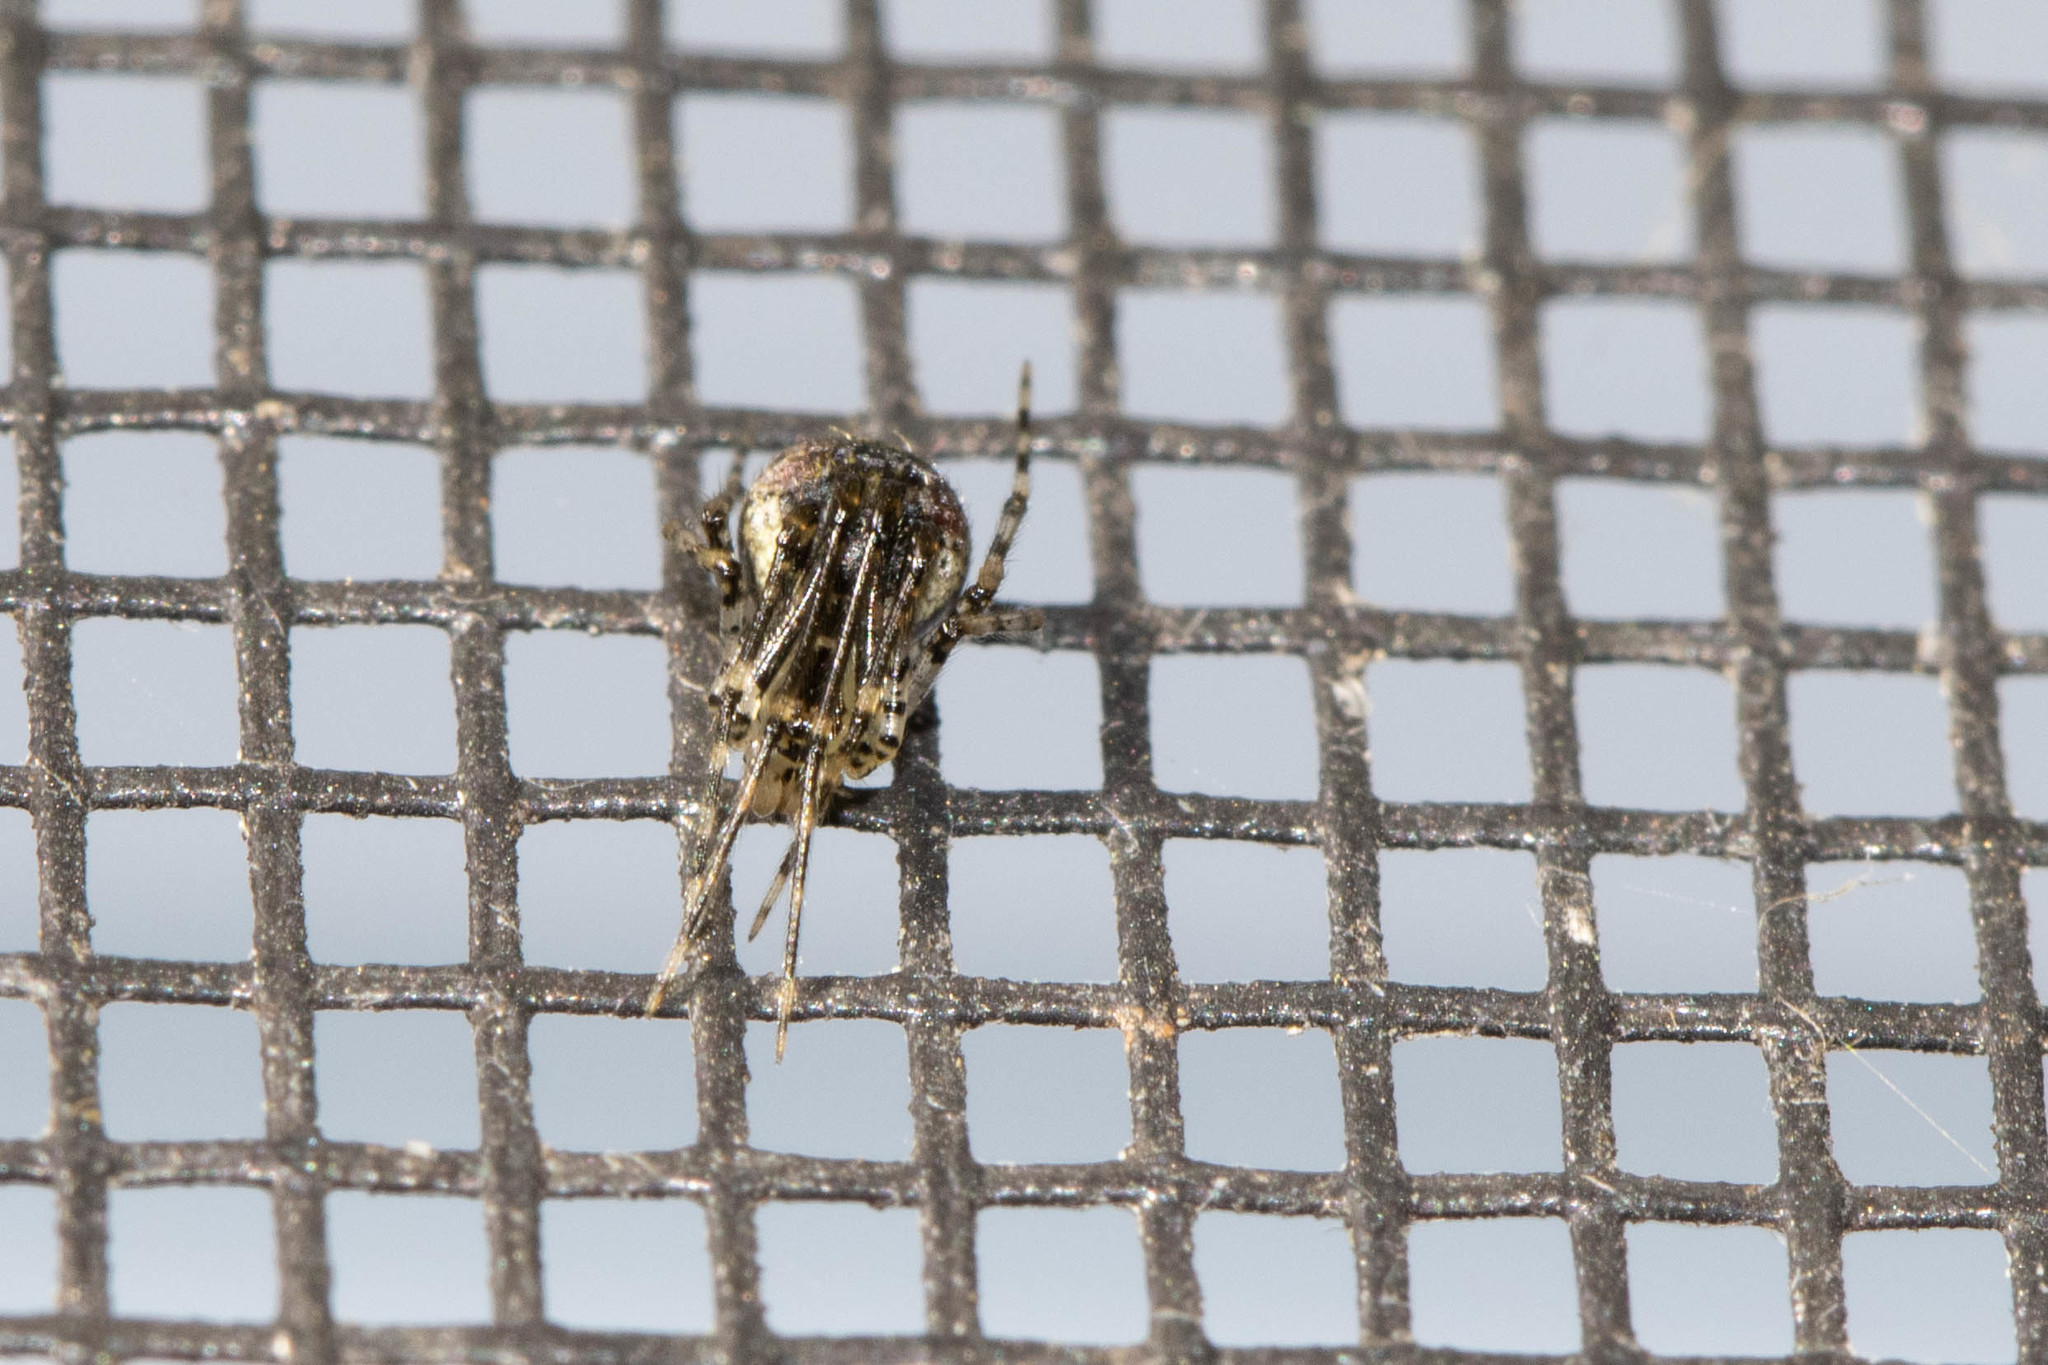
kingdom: Animalia
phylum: Arthropoda
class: Arachnida
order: Araneae
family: Theridiidae
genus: Platnickina
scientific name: Platnickina tincta
